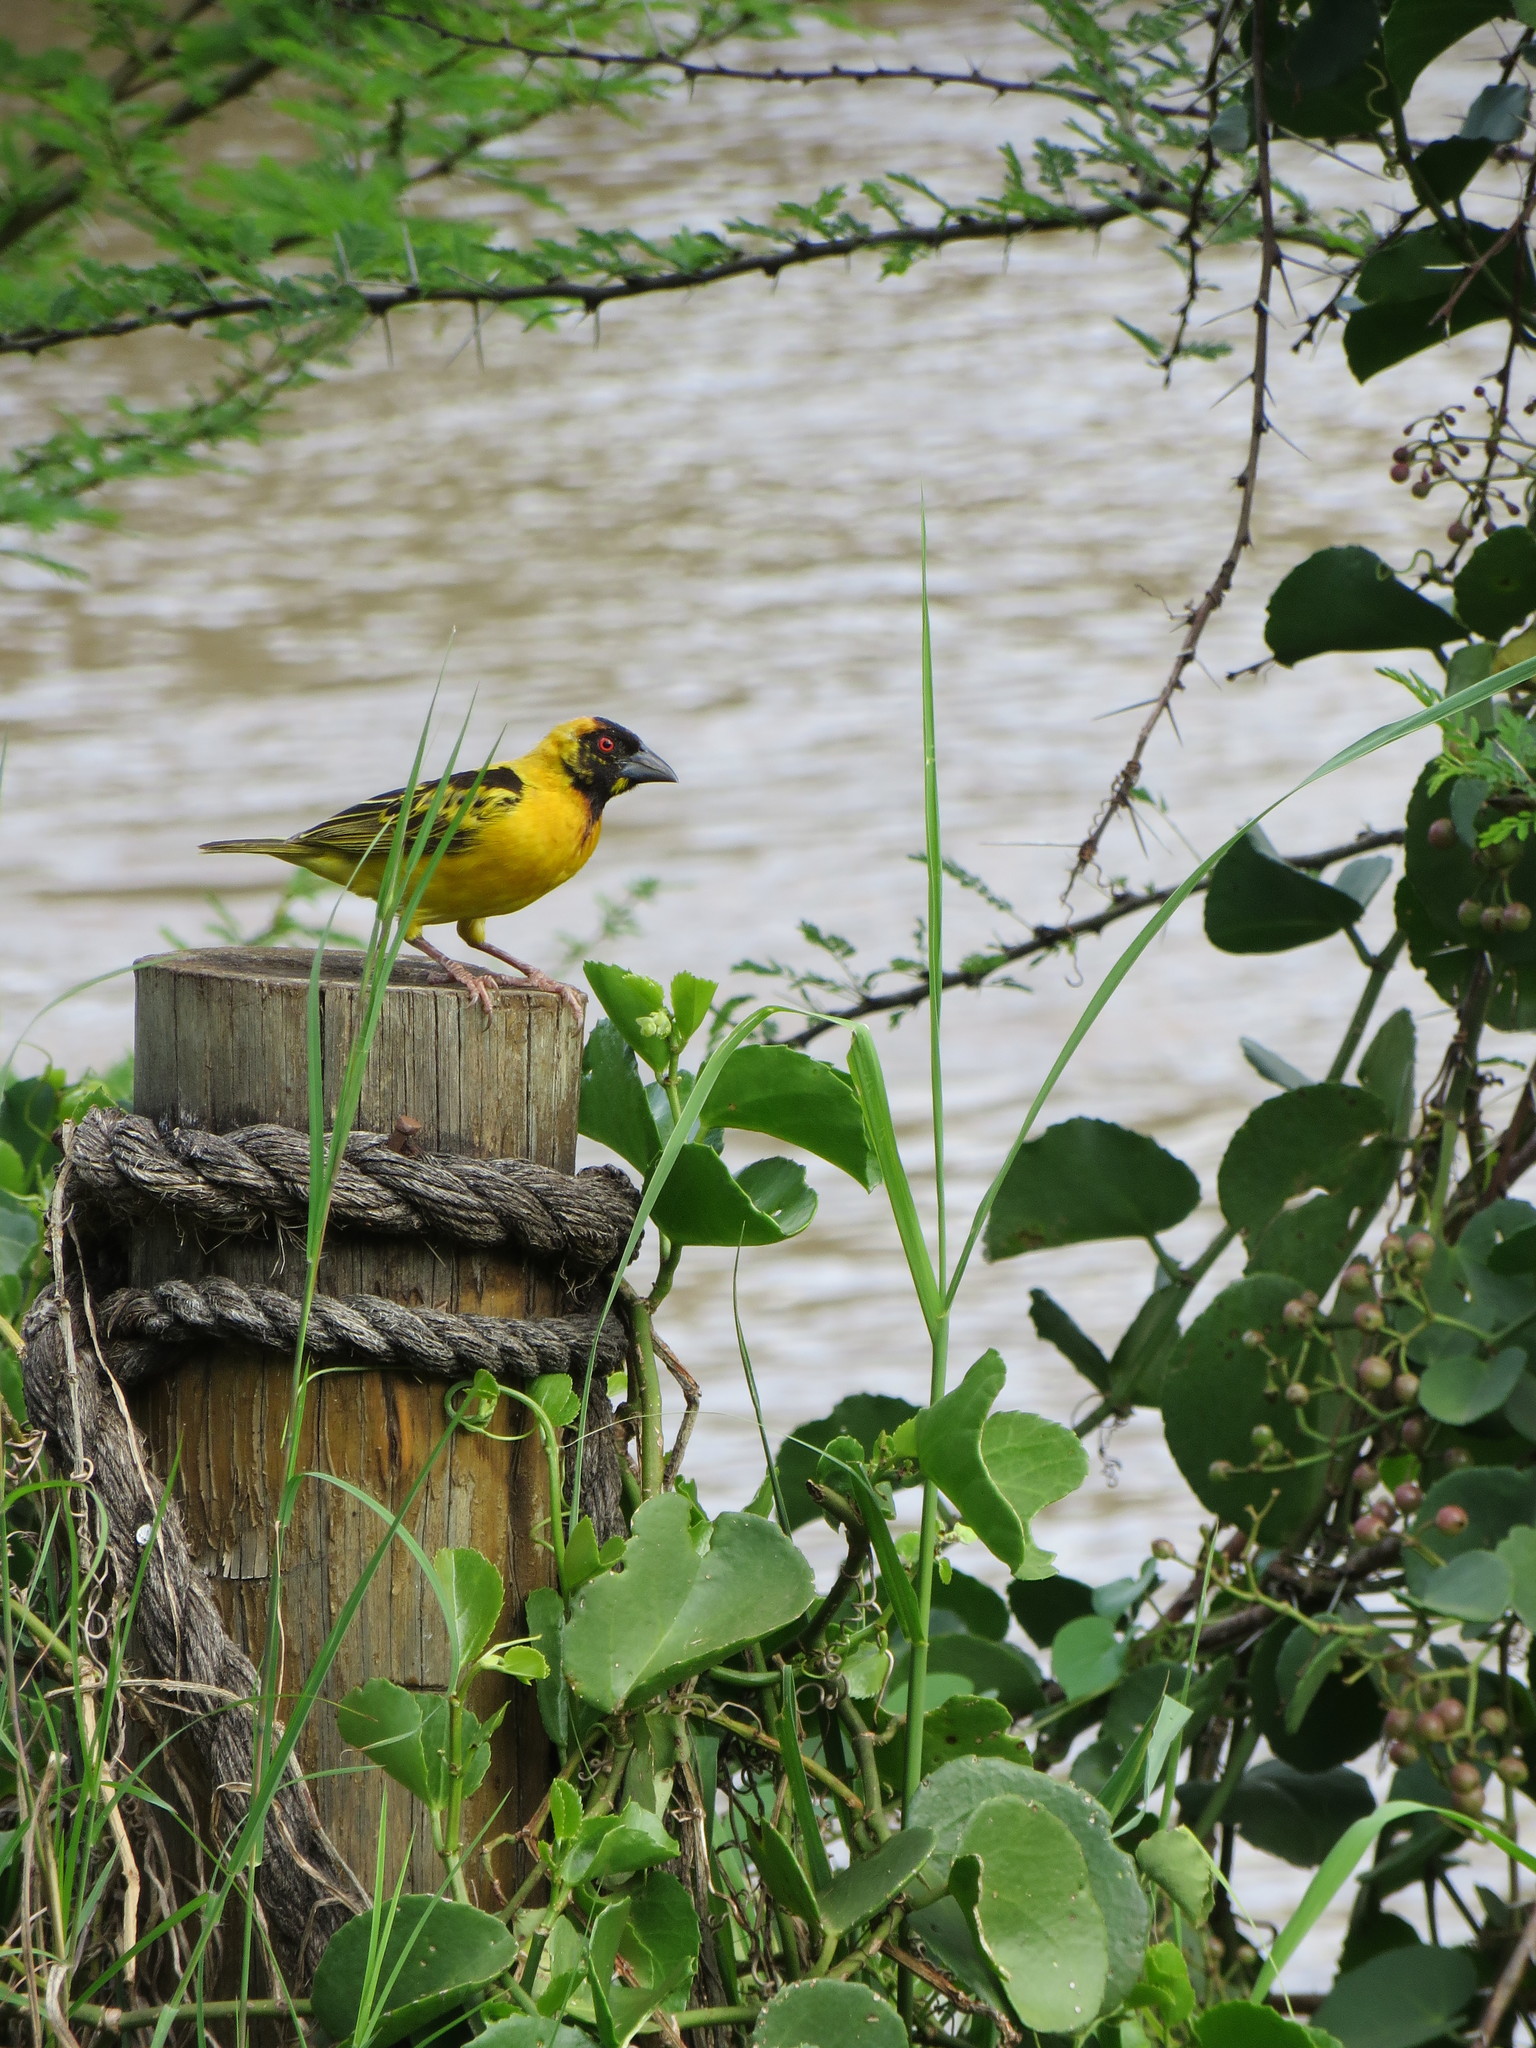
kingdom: Animalia
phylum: Chordata
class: Aves
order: Passeriformes
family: Ploceidae
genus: Ploceus
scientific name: Ploceus cucullatus
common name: Village weaver
